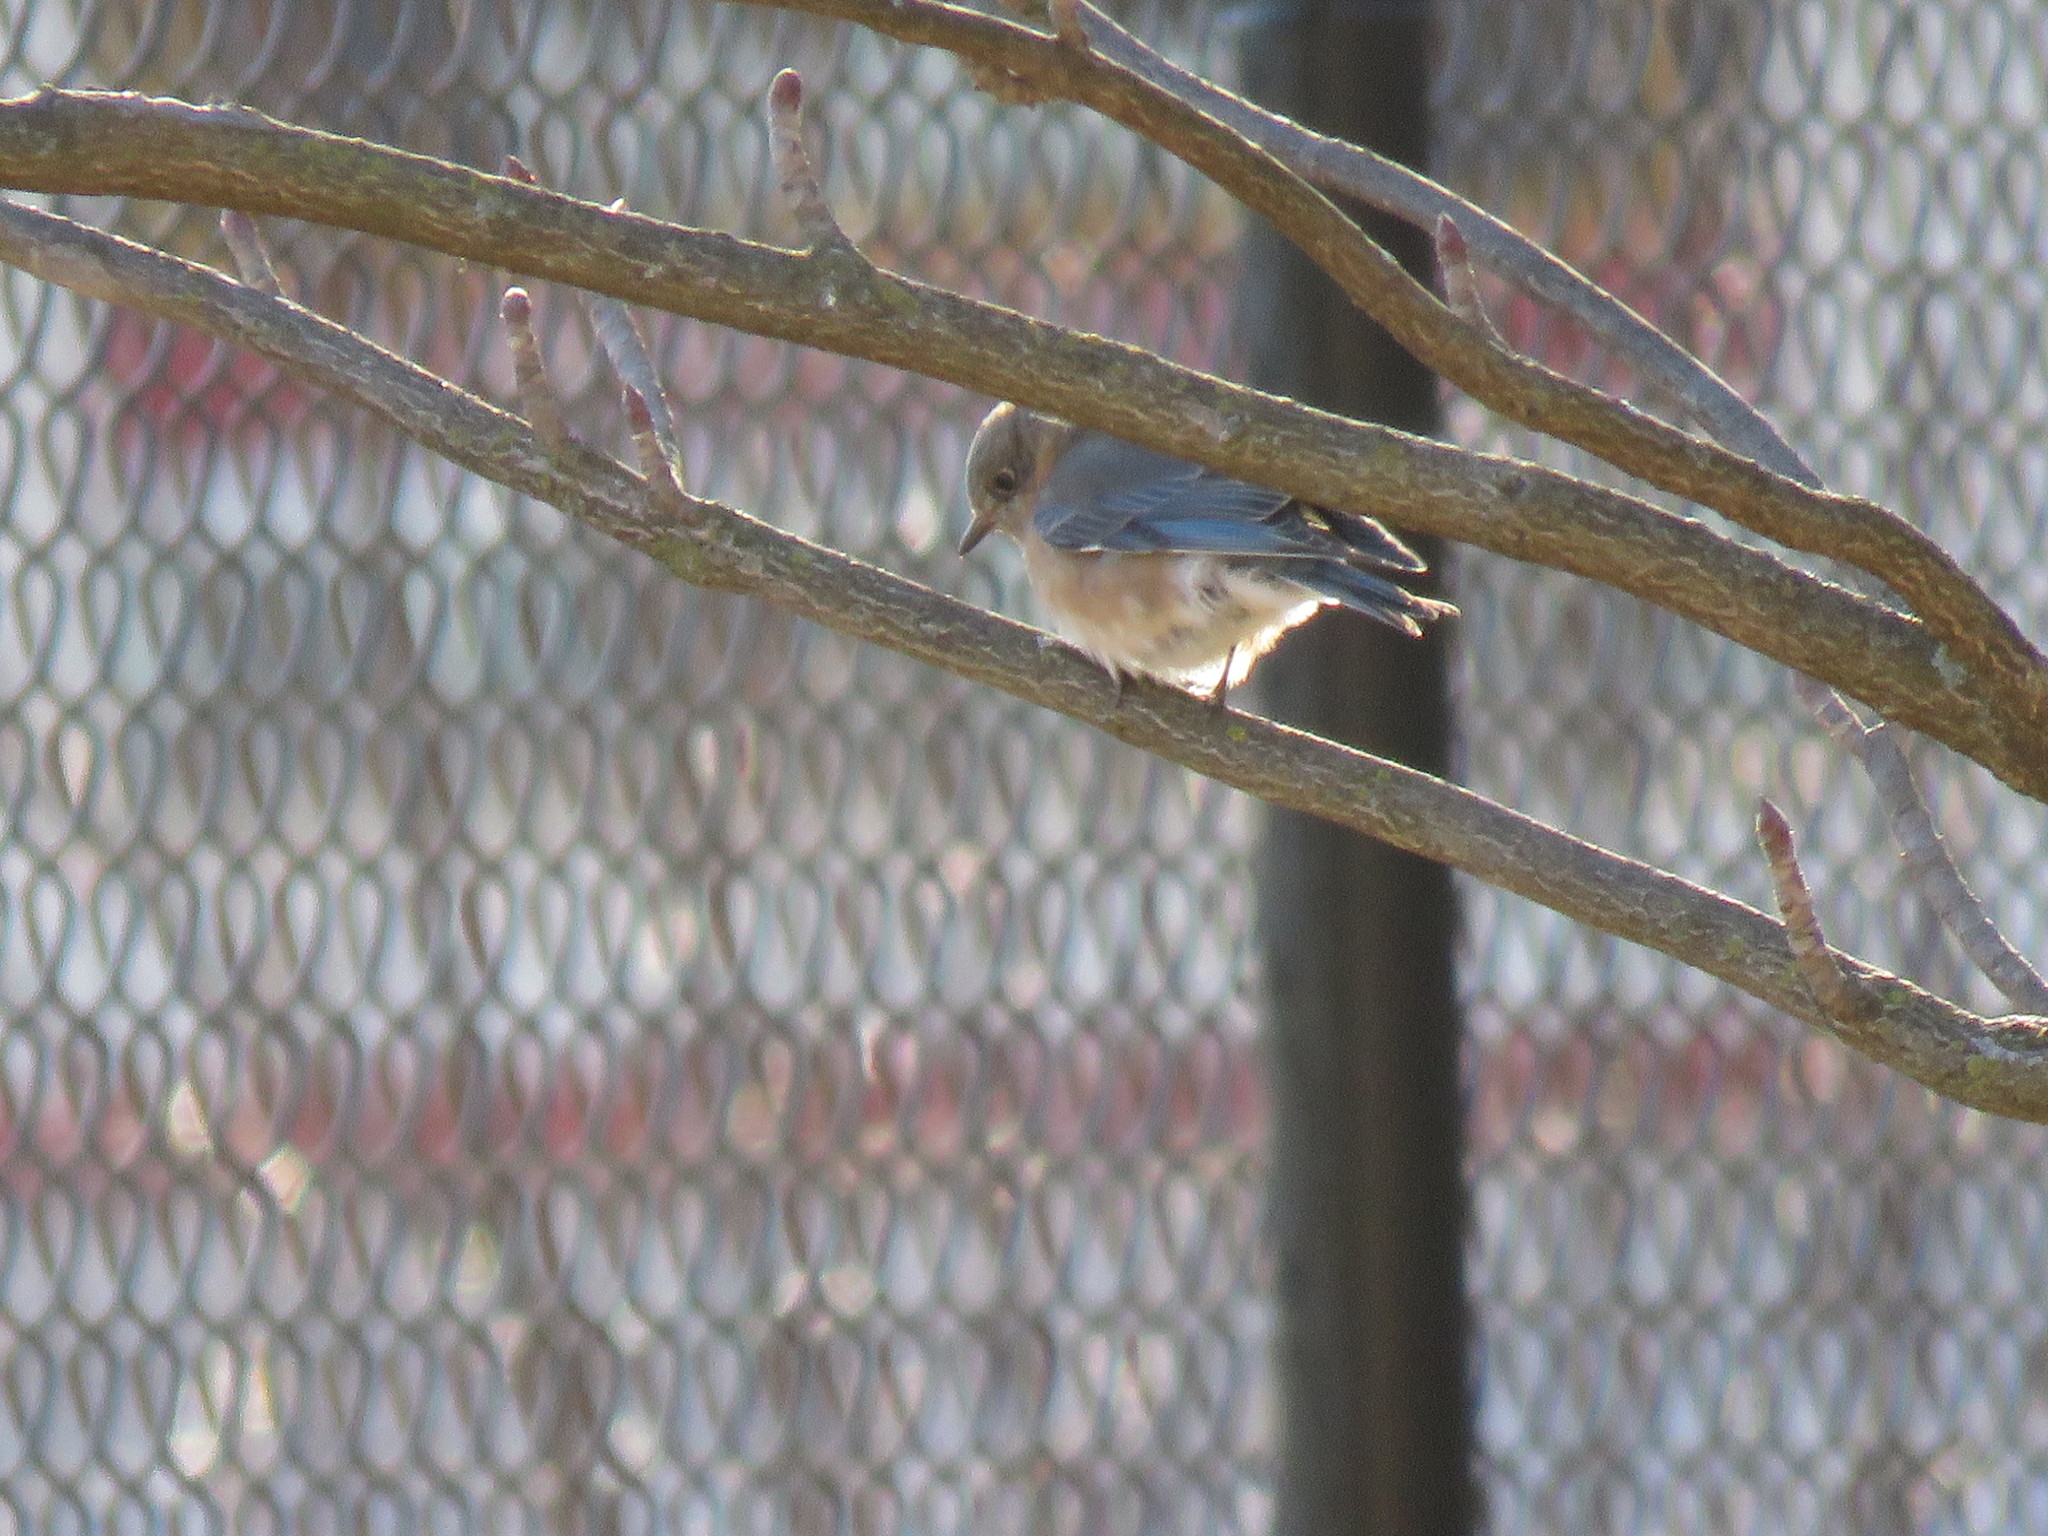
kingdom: Animalia
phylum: Chordata
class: Aves
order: Passeriformes
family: Turdidae
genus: Sialia
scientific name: Sialia sialis
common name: Eastern bluebird
